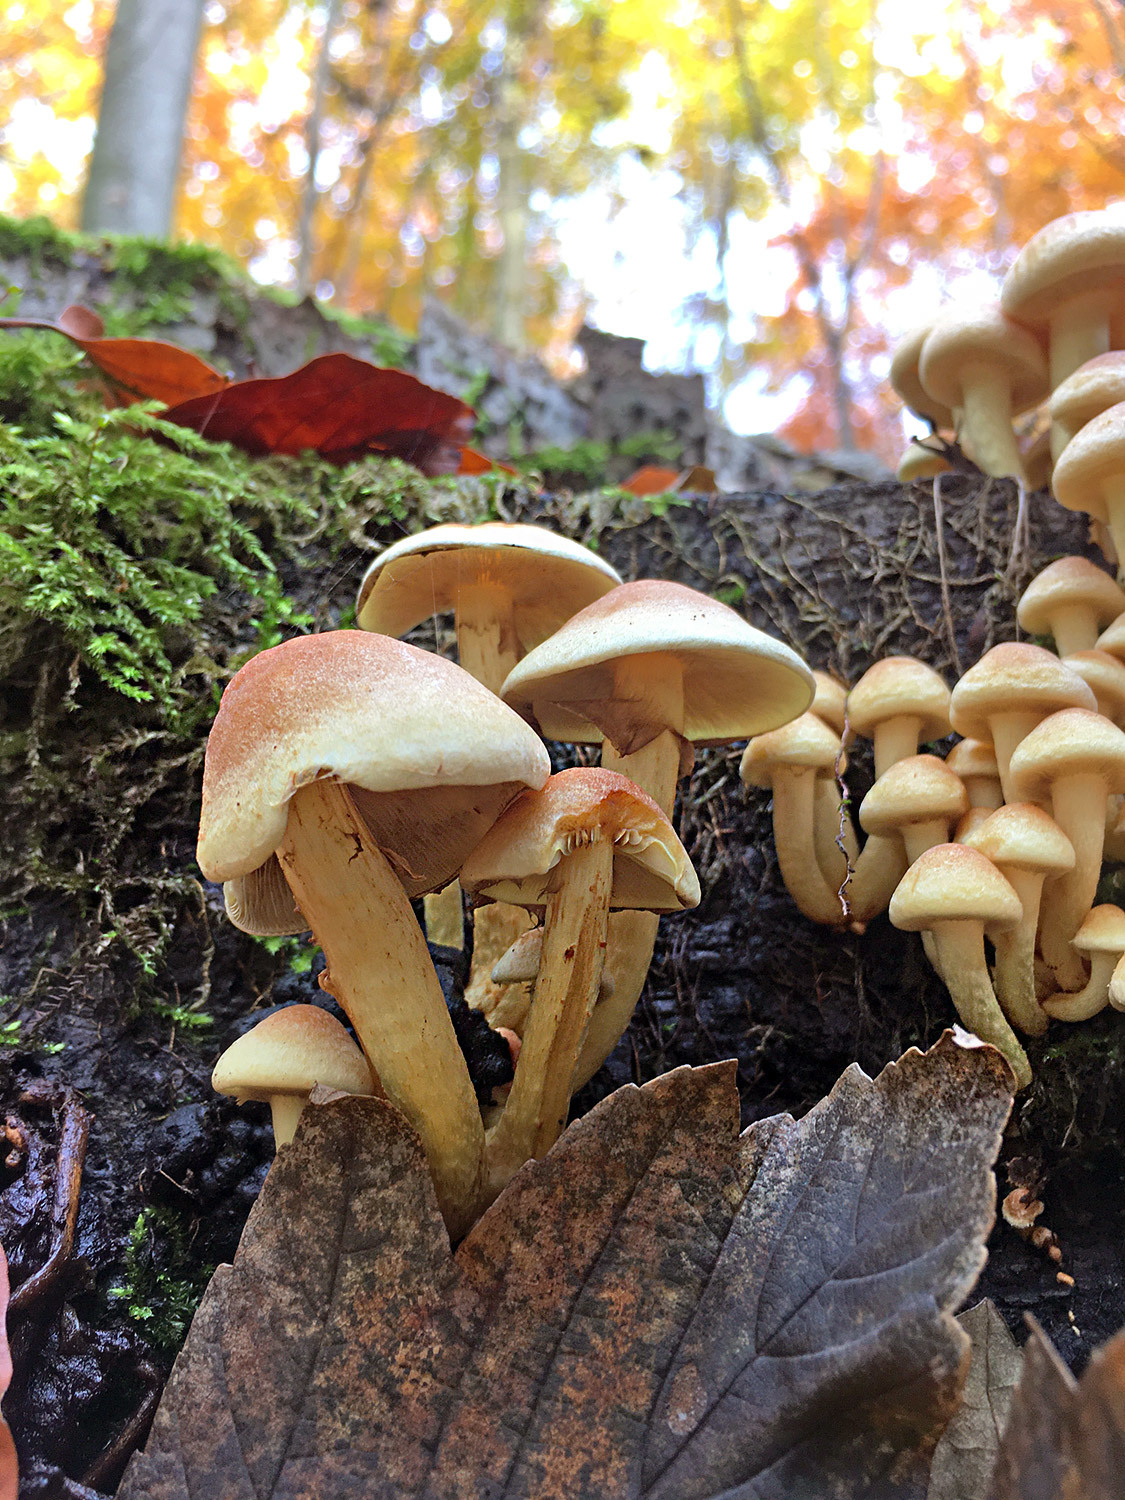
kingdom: Fungi
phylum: Basidiomycota
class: Agaricomycetes
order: Agaricales
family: Strophariaceae
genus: Hypholoma
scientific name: Hypholoma lateritium
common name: Brick caps
